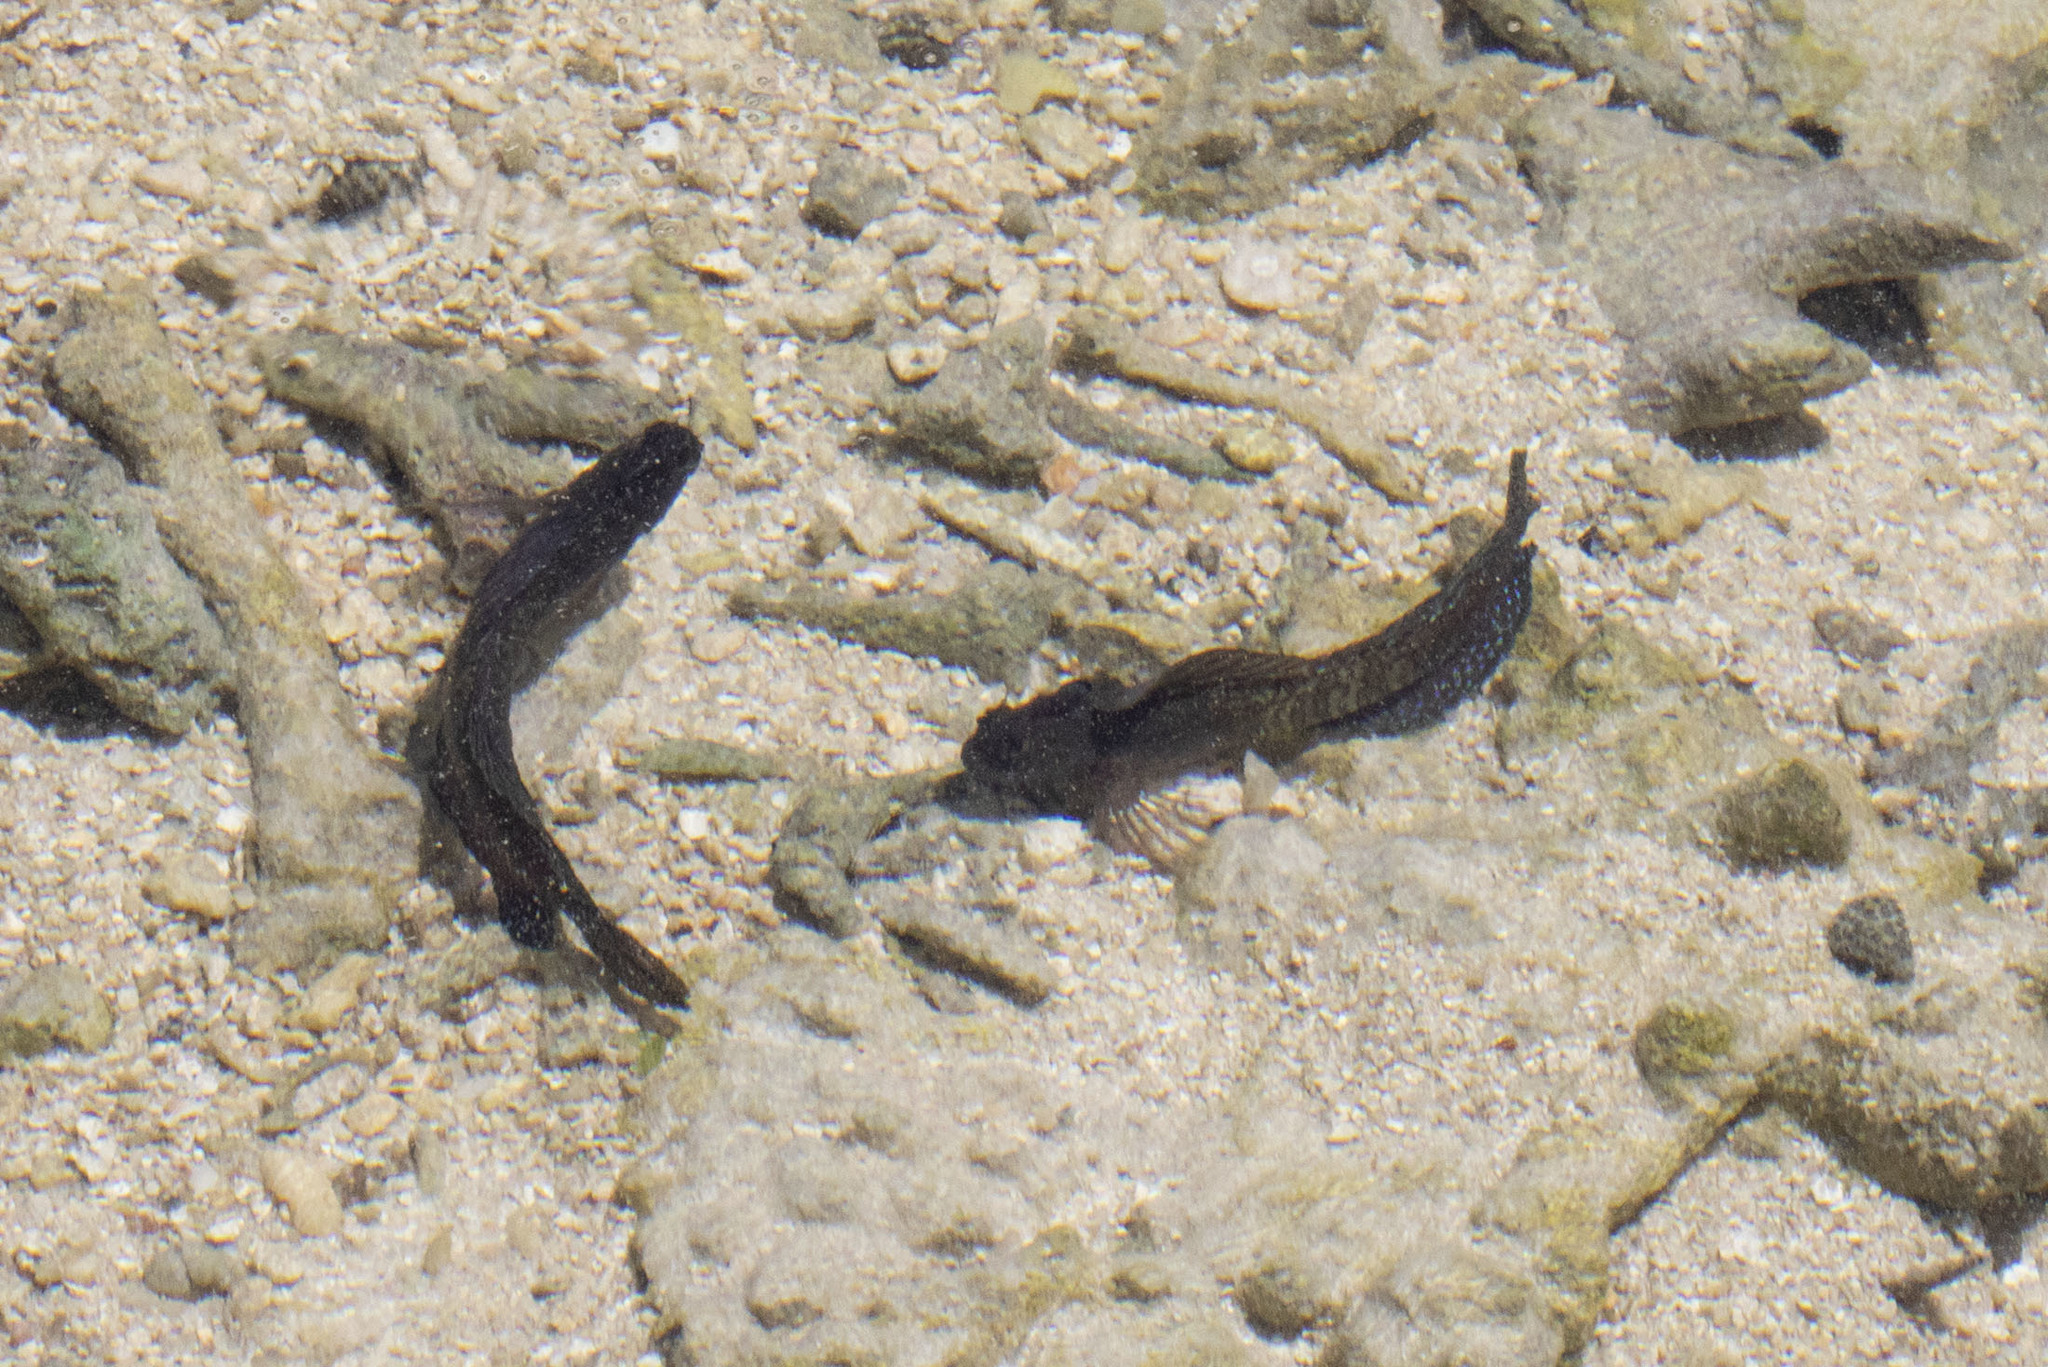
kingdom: Animalia
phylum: Chordata
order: Perciformes
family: Blenniidae
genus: Praealticus
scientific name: Praealticus triangulus
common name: Triangle-crest rockskipper
